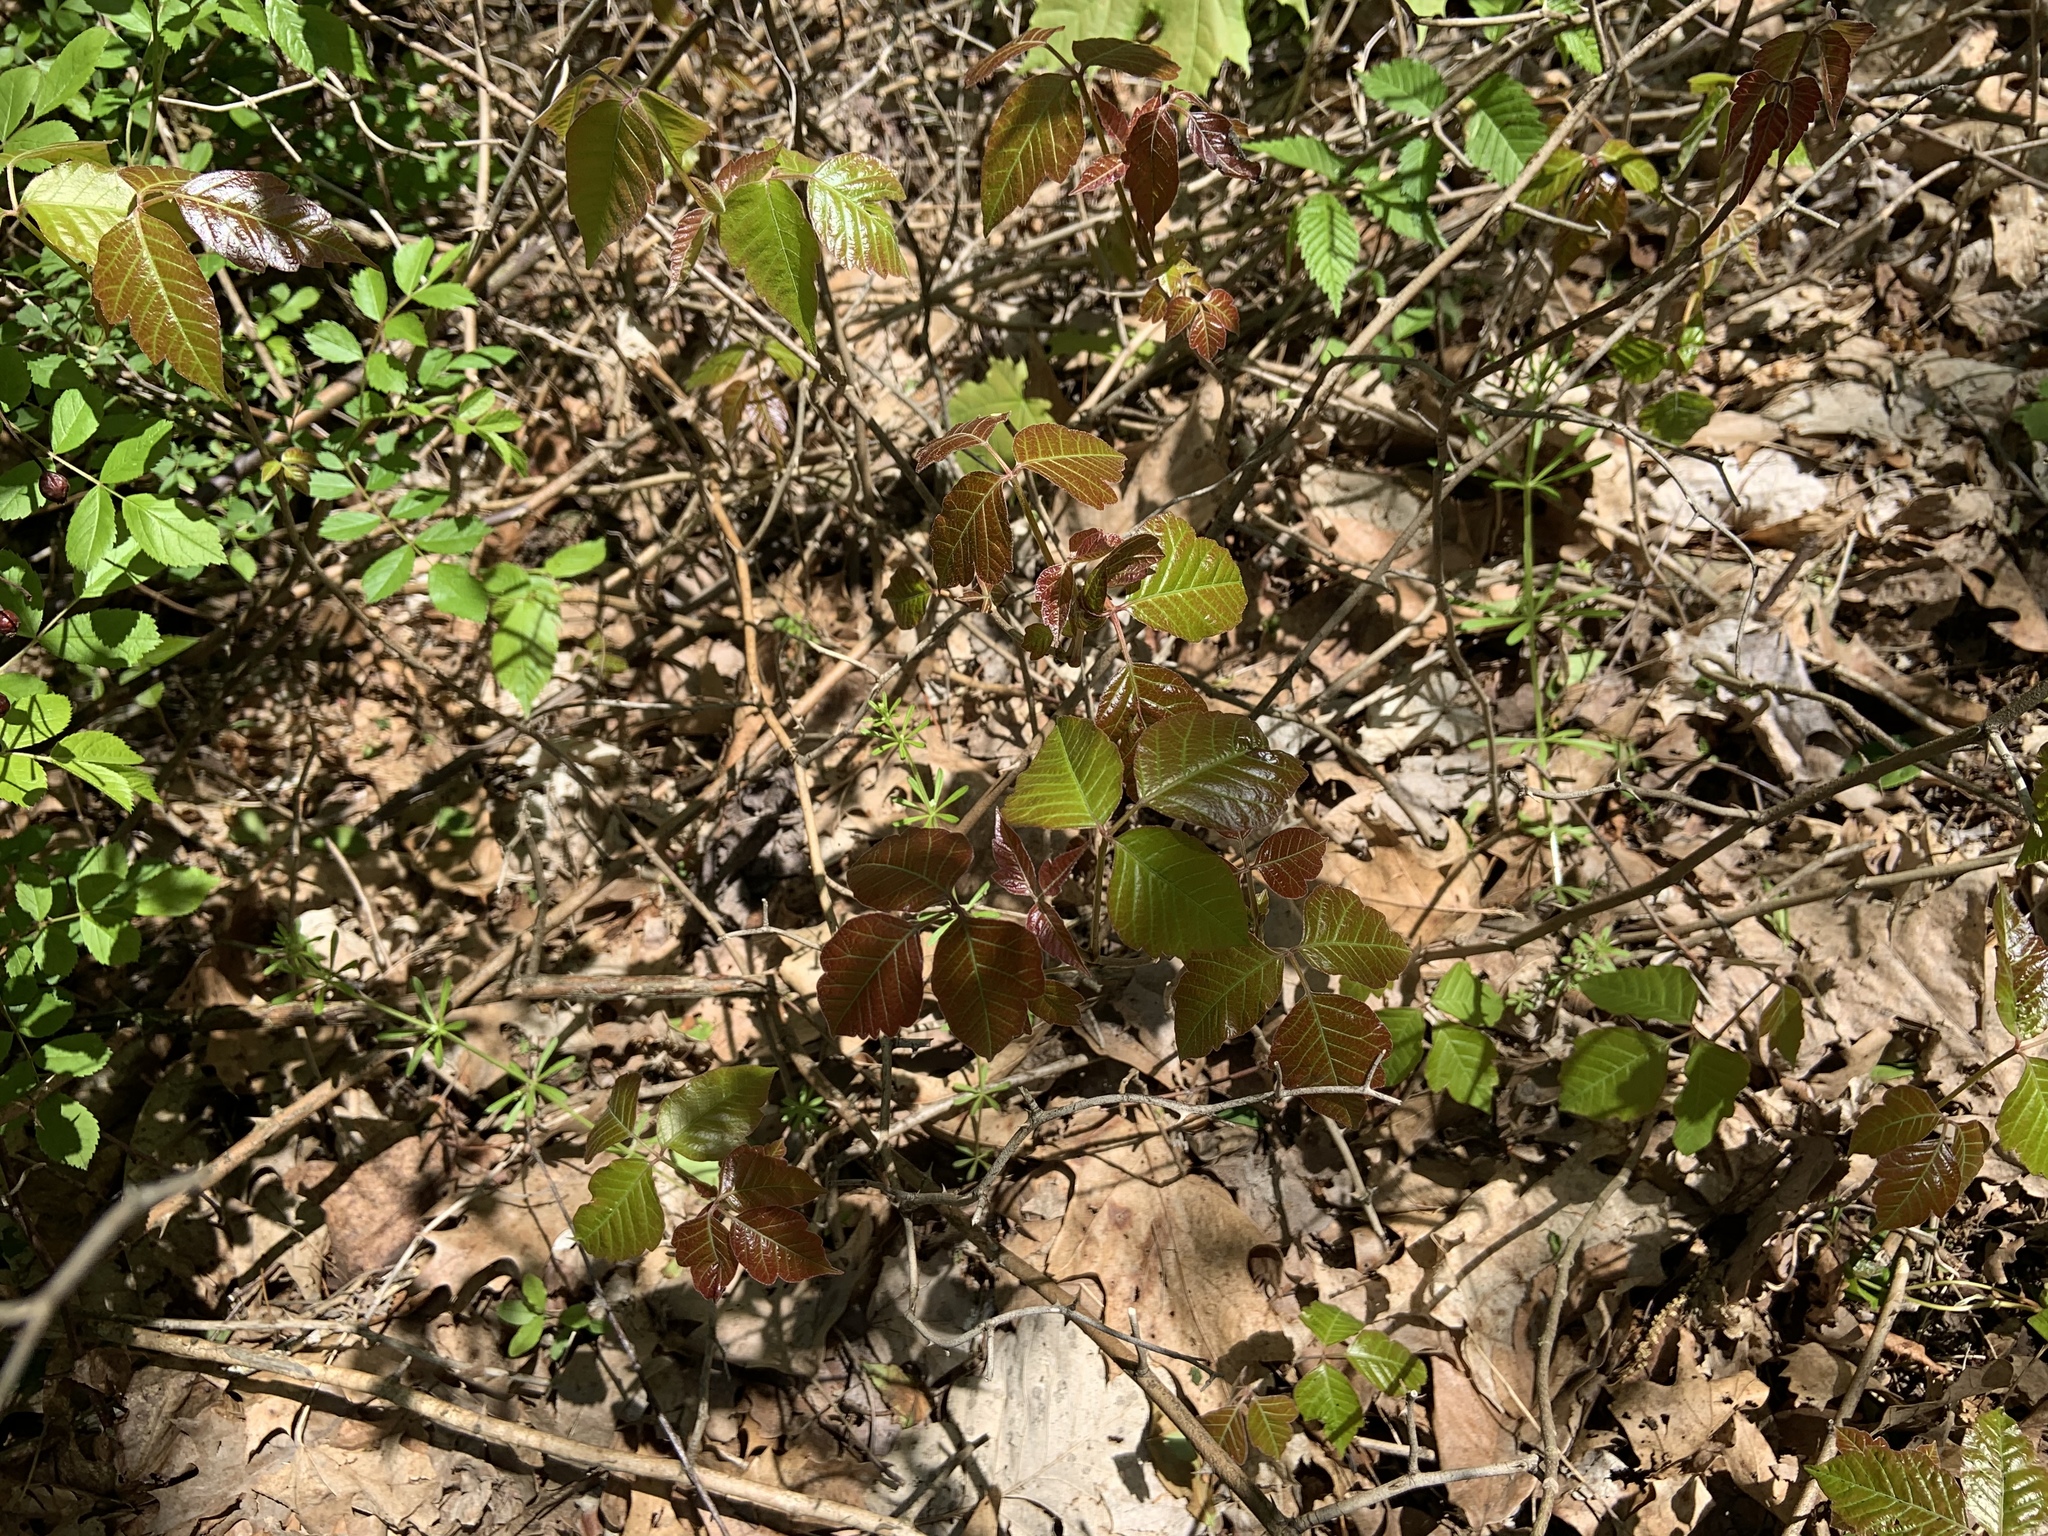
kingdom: Plantae
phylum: Tracheophyta
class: Magnoliopsida
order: Sapindales
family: Anacardiaceae
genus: Toxicodendron
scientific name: Toxicodendron radicans
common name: Poison ivy
